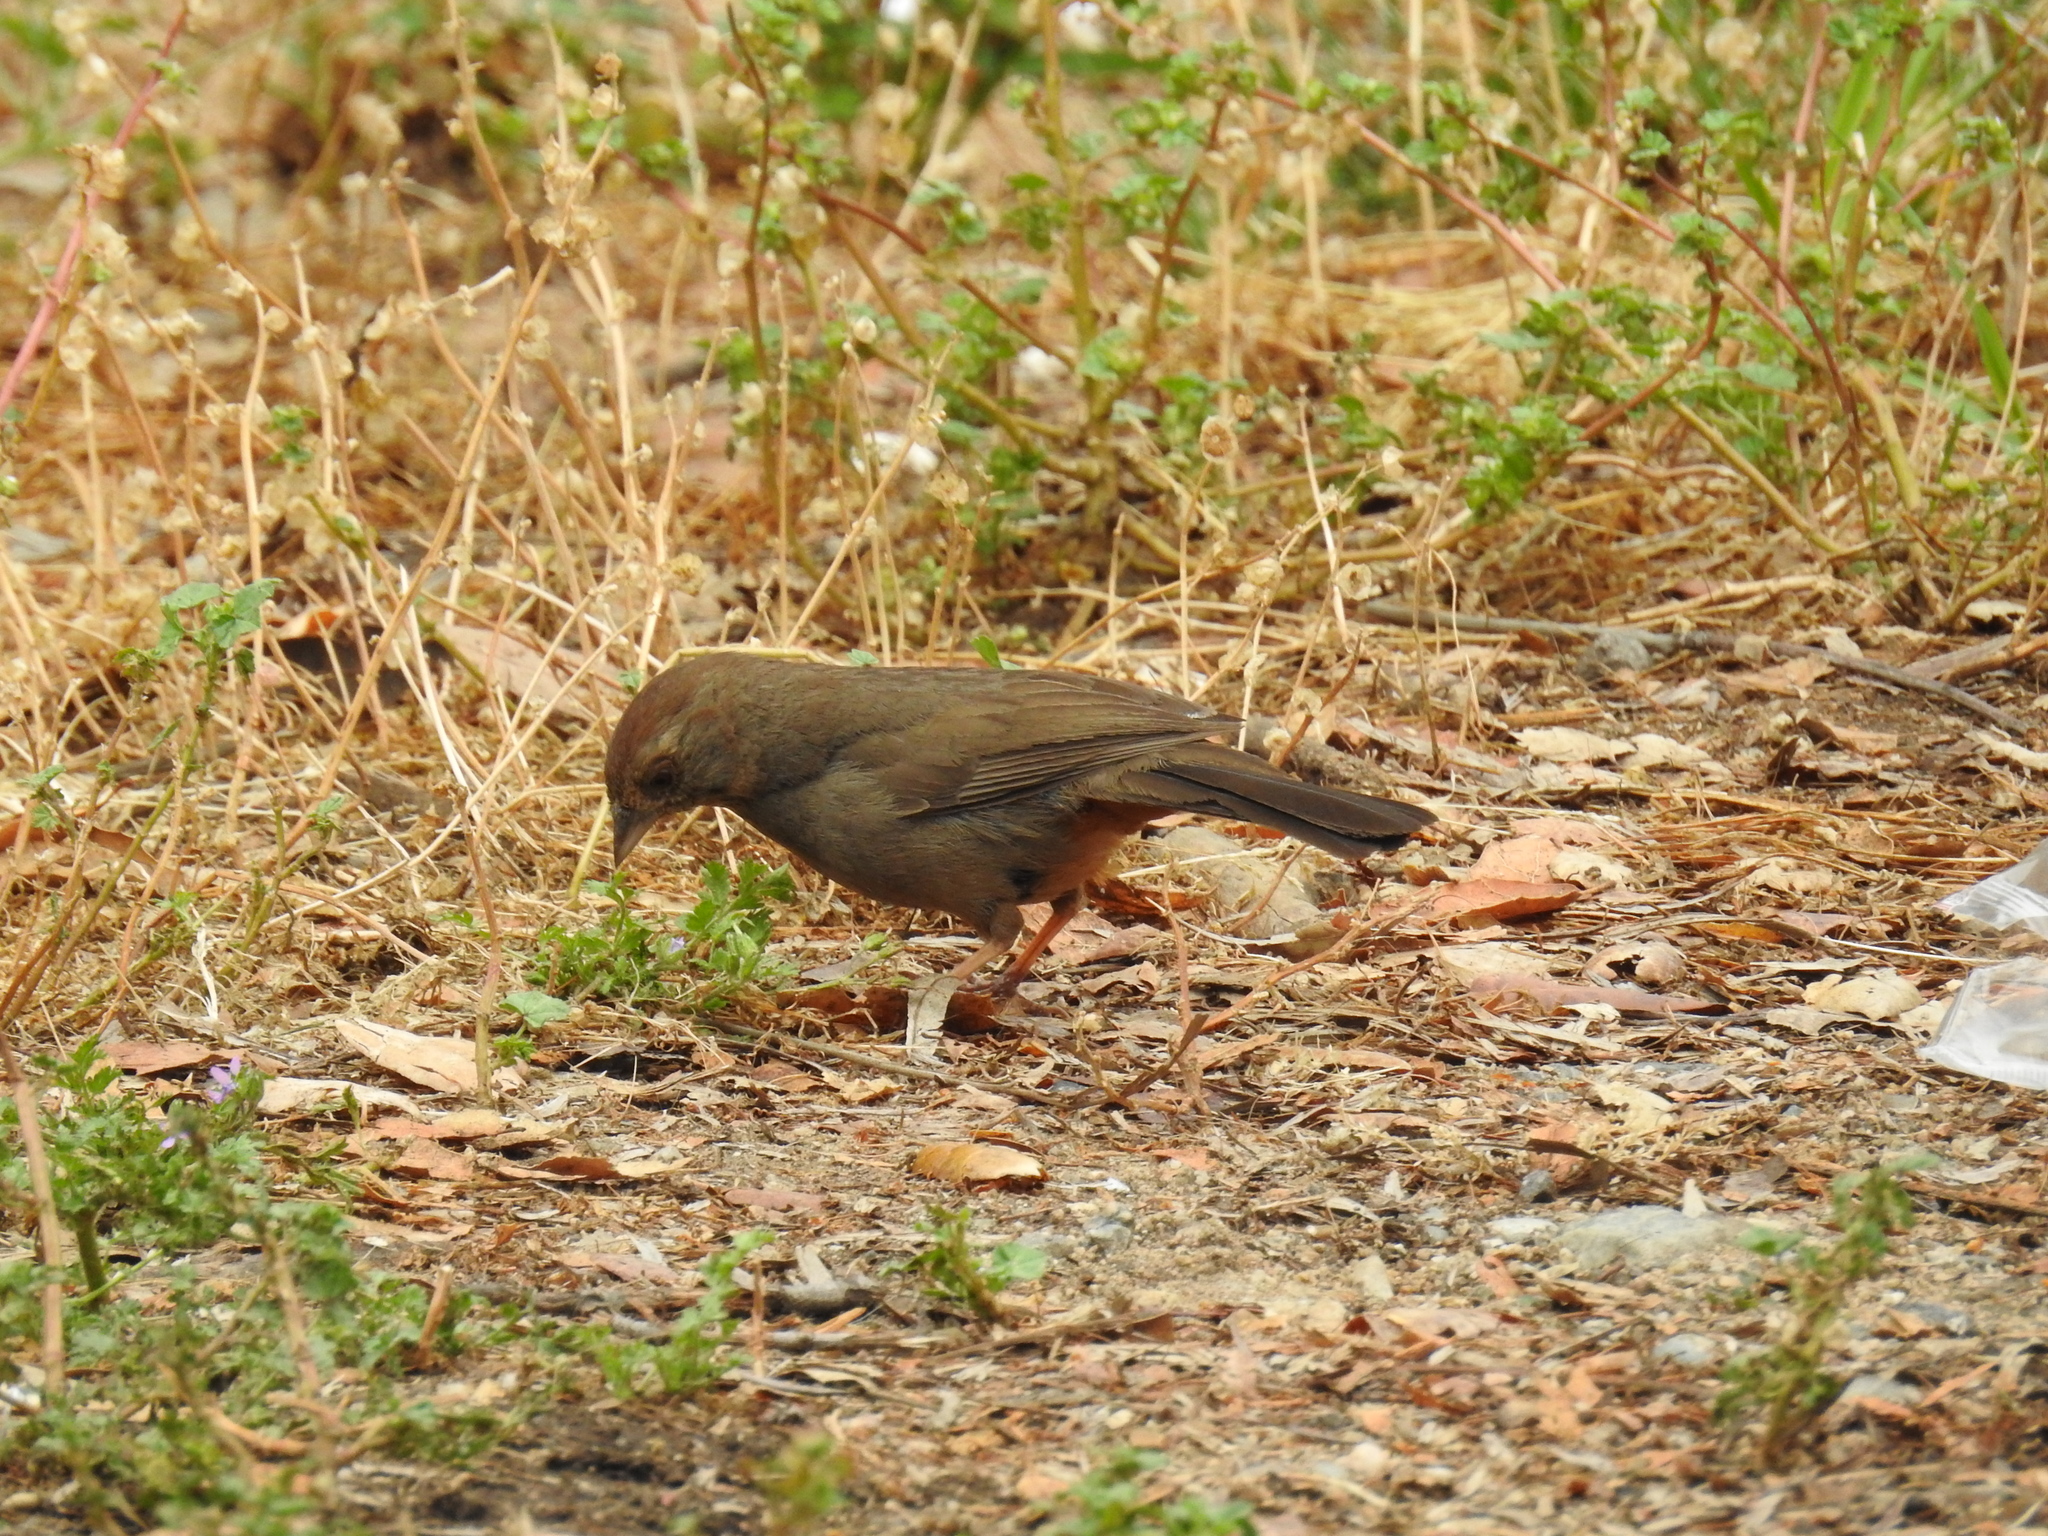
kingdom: Animalia
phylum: Chordata
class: Aves
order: Passeriformes
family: Passerellidae
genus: Melozone
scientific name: Melozone crissalis
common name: California towhee
